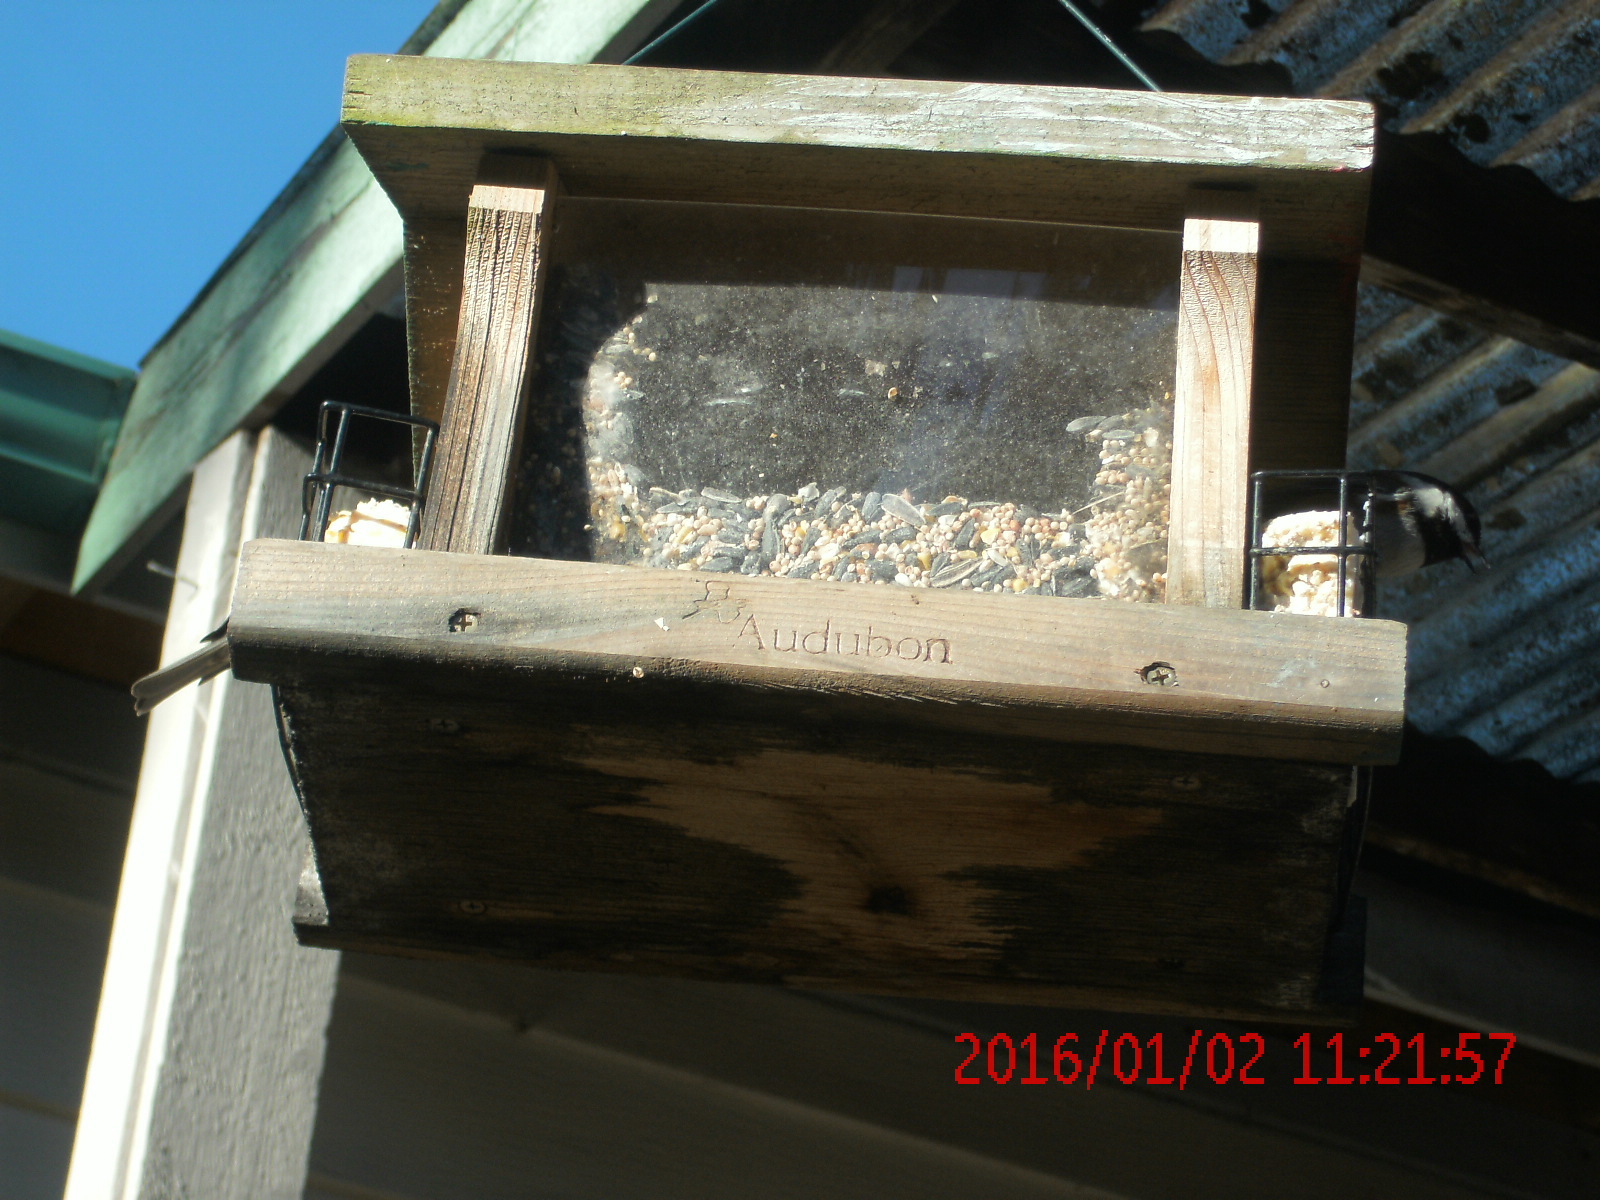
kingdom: Animalia
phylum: Chordata
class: Aves
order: Passeriformes
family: Paridae
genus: Poecile
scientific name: Poecile rufescens
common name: Chestnut-backed chickadee
